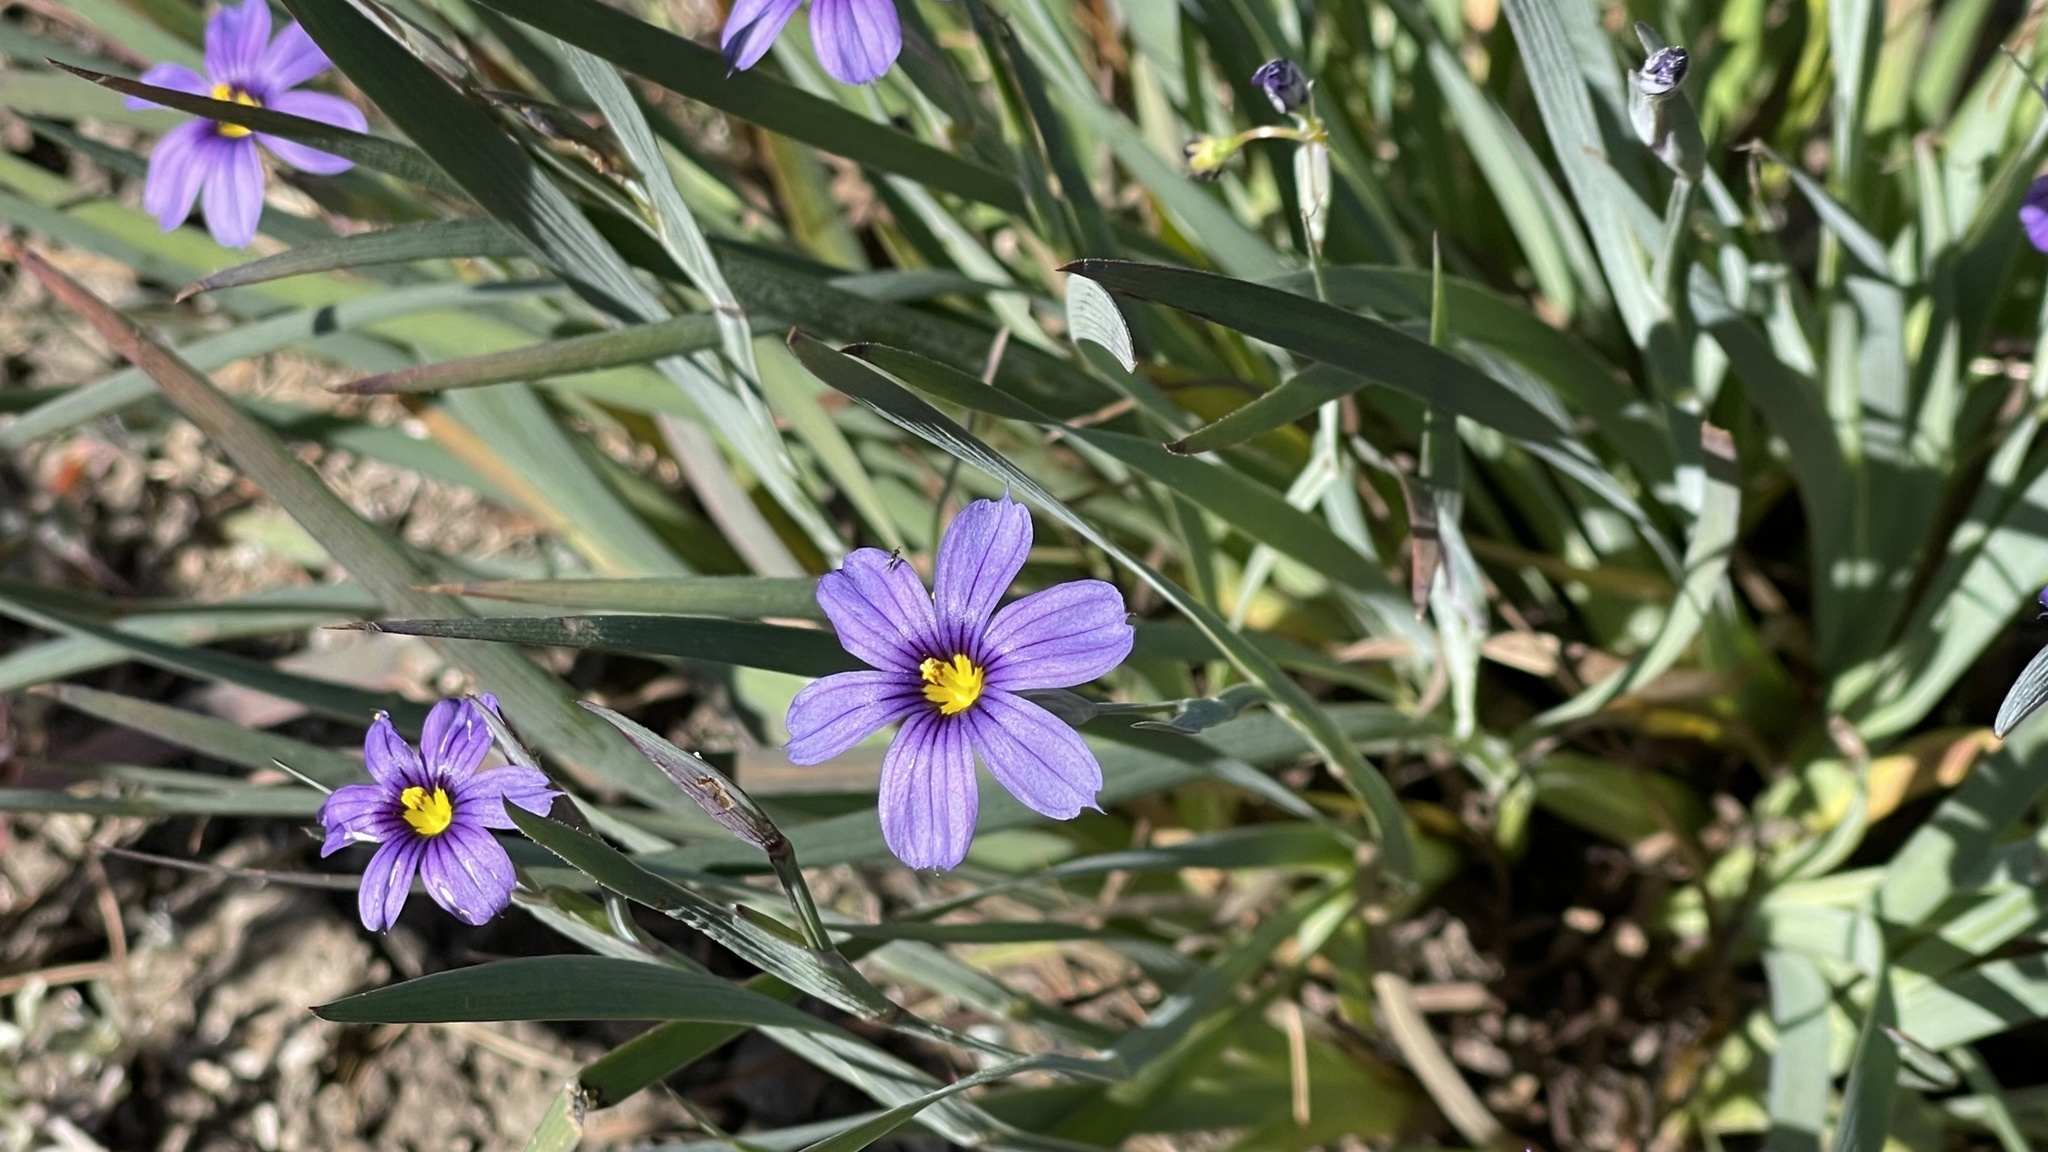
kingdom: Plantae
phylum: Tracheophyta
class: Liliopsida
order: Asparagales
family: Iridaceae
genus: Sisyrinchium
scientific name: Sisyrinchium bellum
